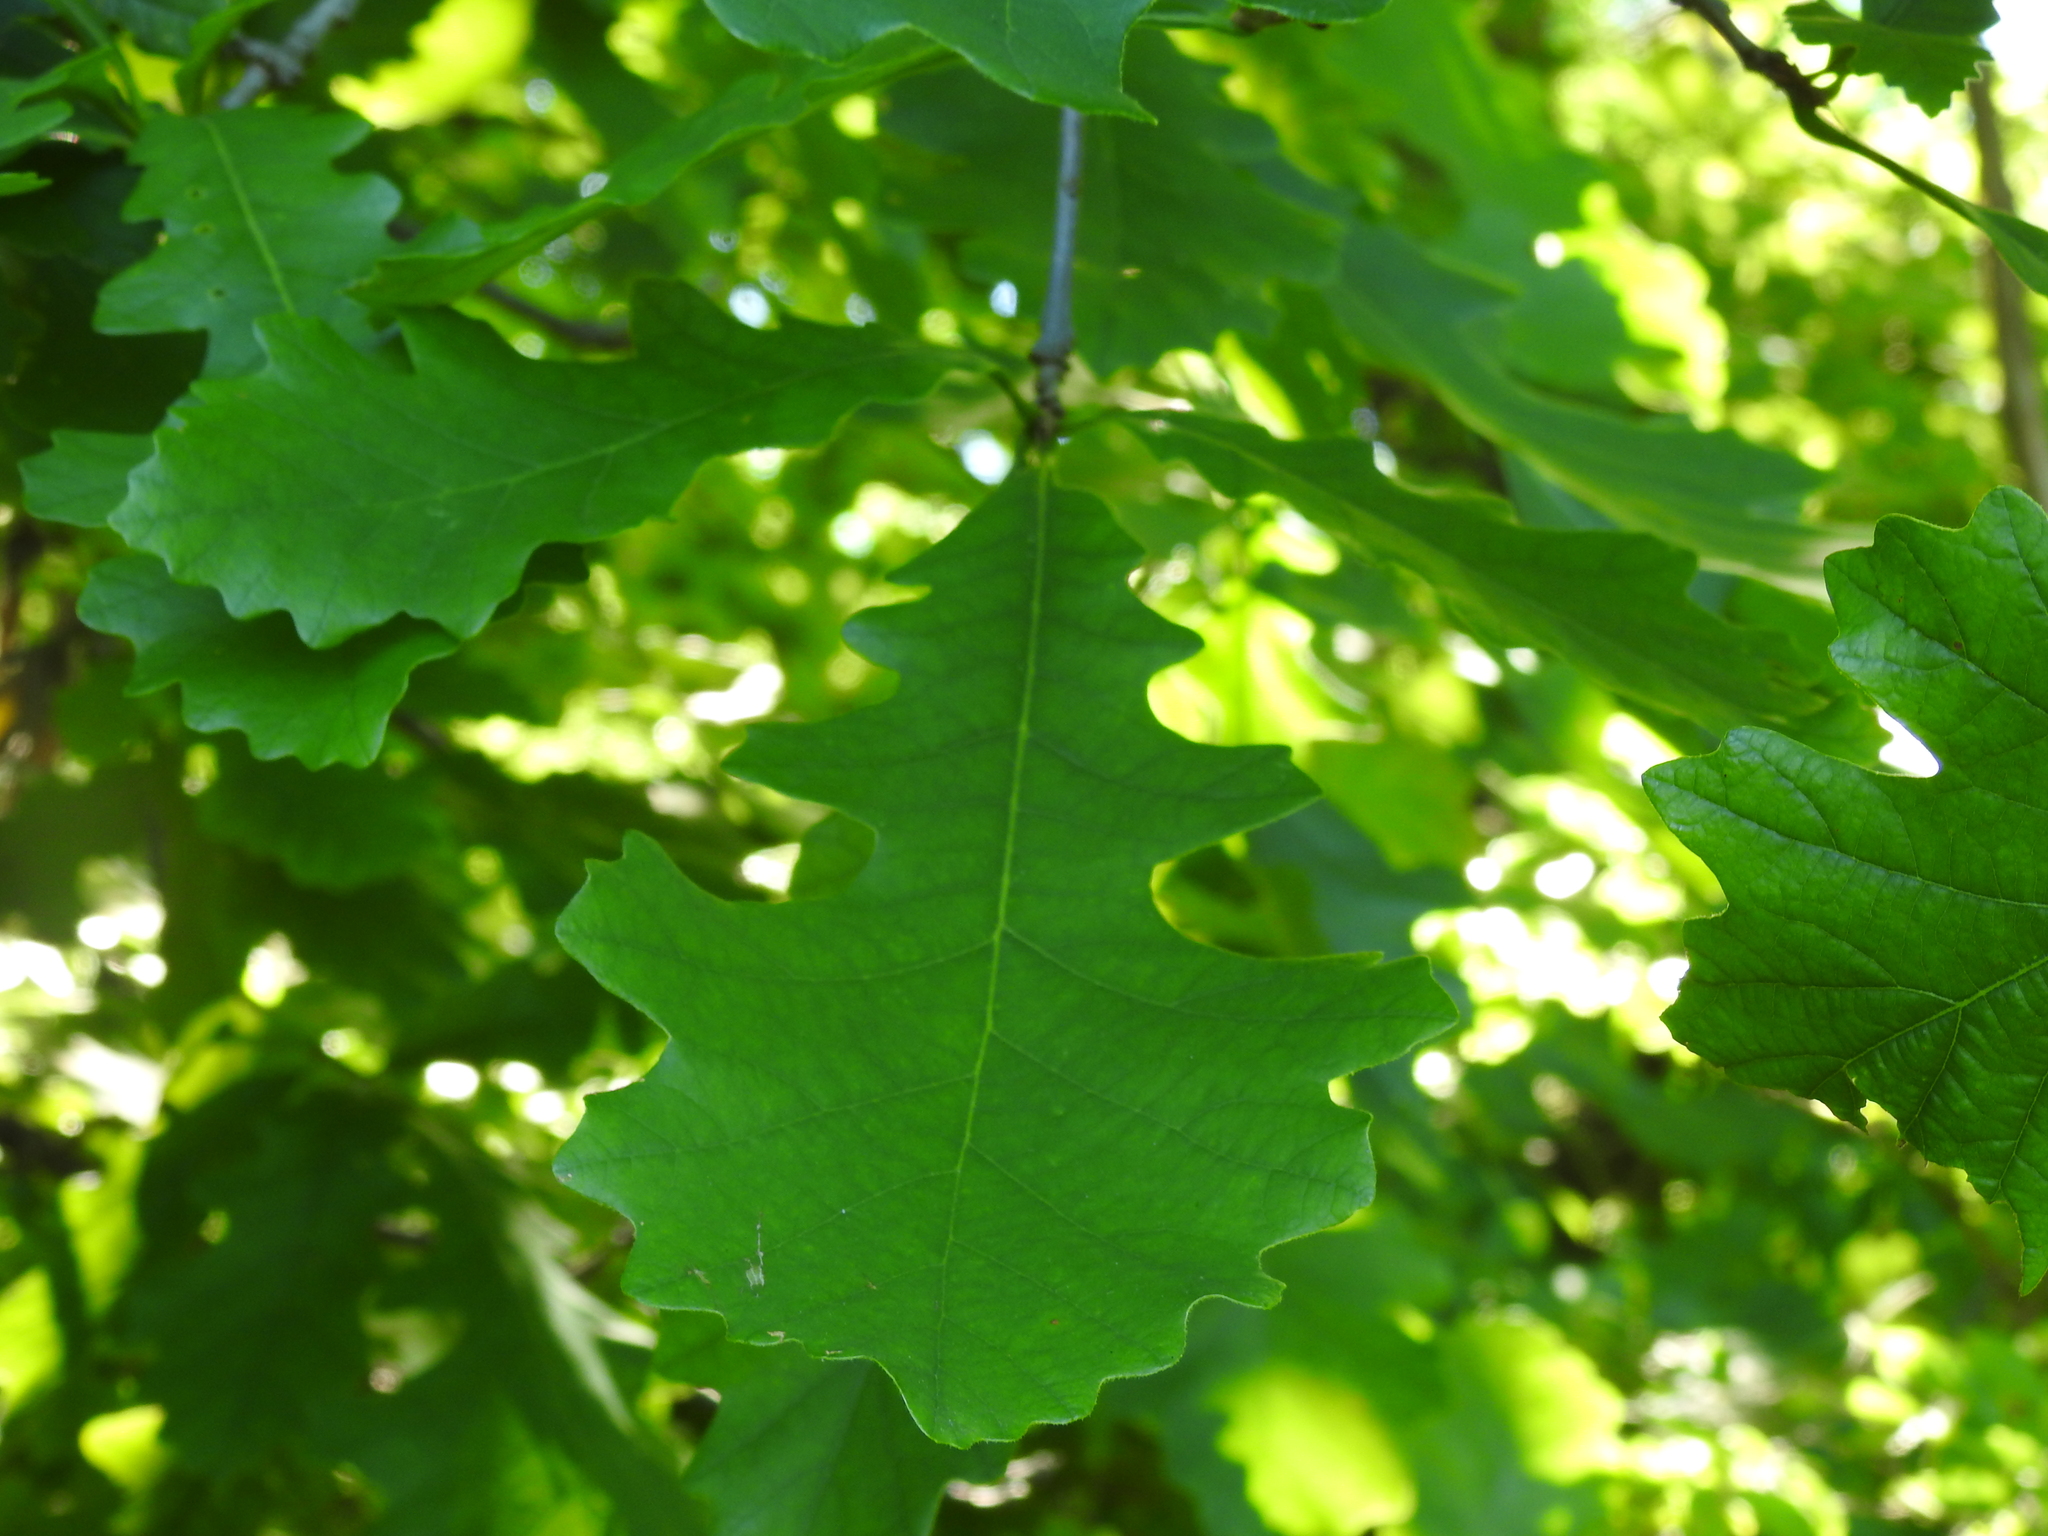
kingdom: Plantae
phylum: Tracheophyta
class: Magnoliopsida
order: Fagales
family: Fagaceae
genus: Quercus
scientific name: Quercus macrocarpa
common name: Bur oak
